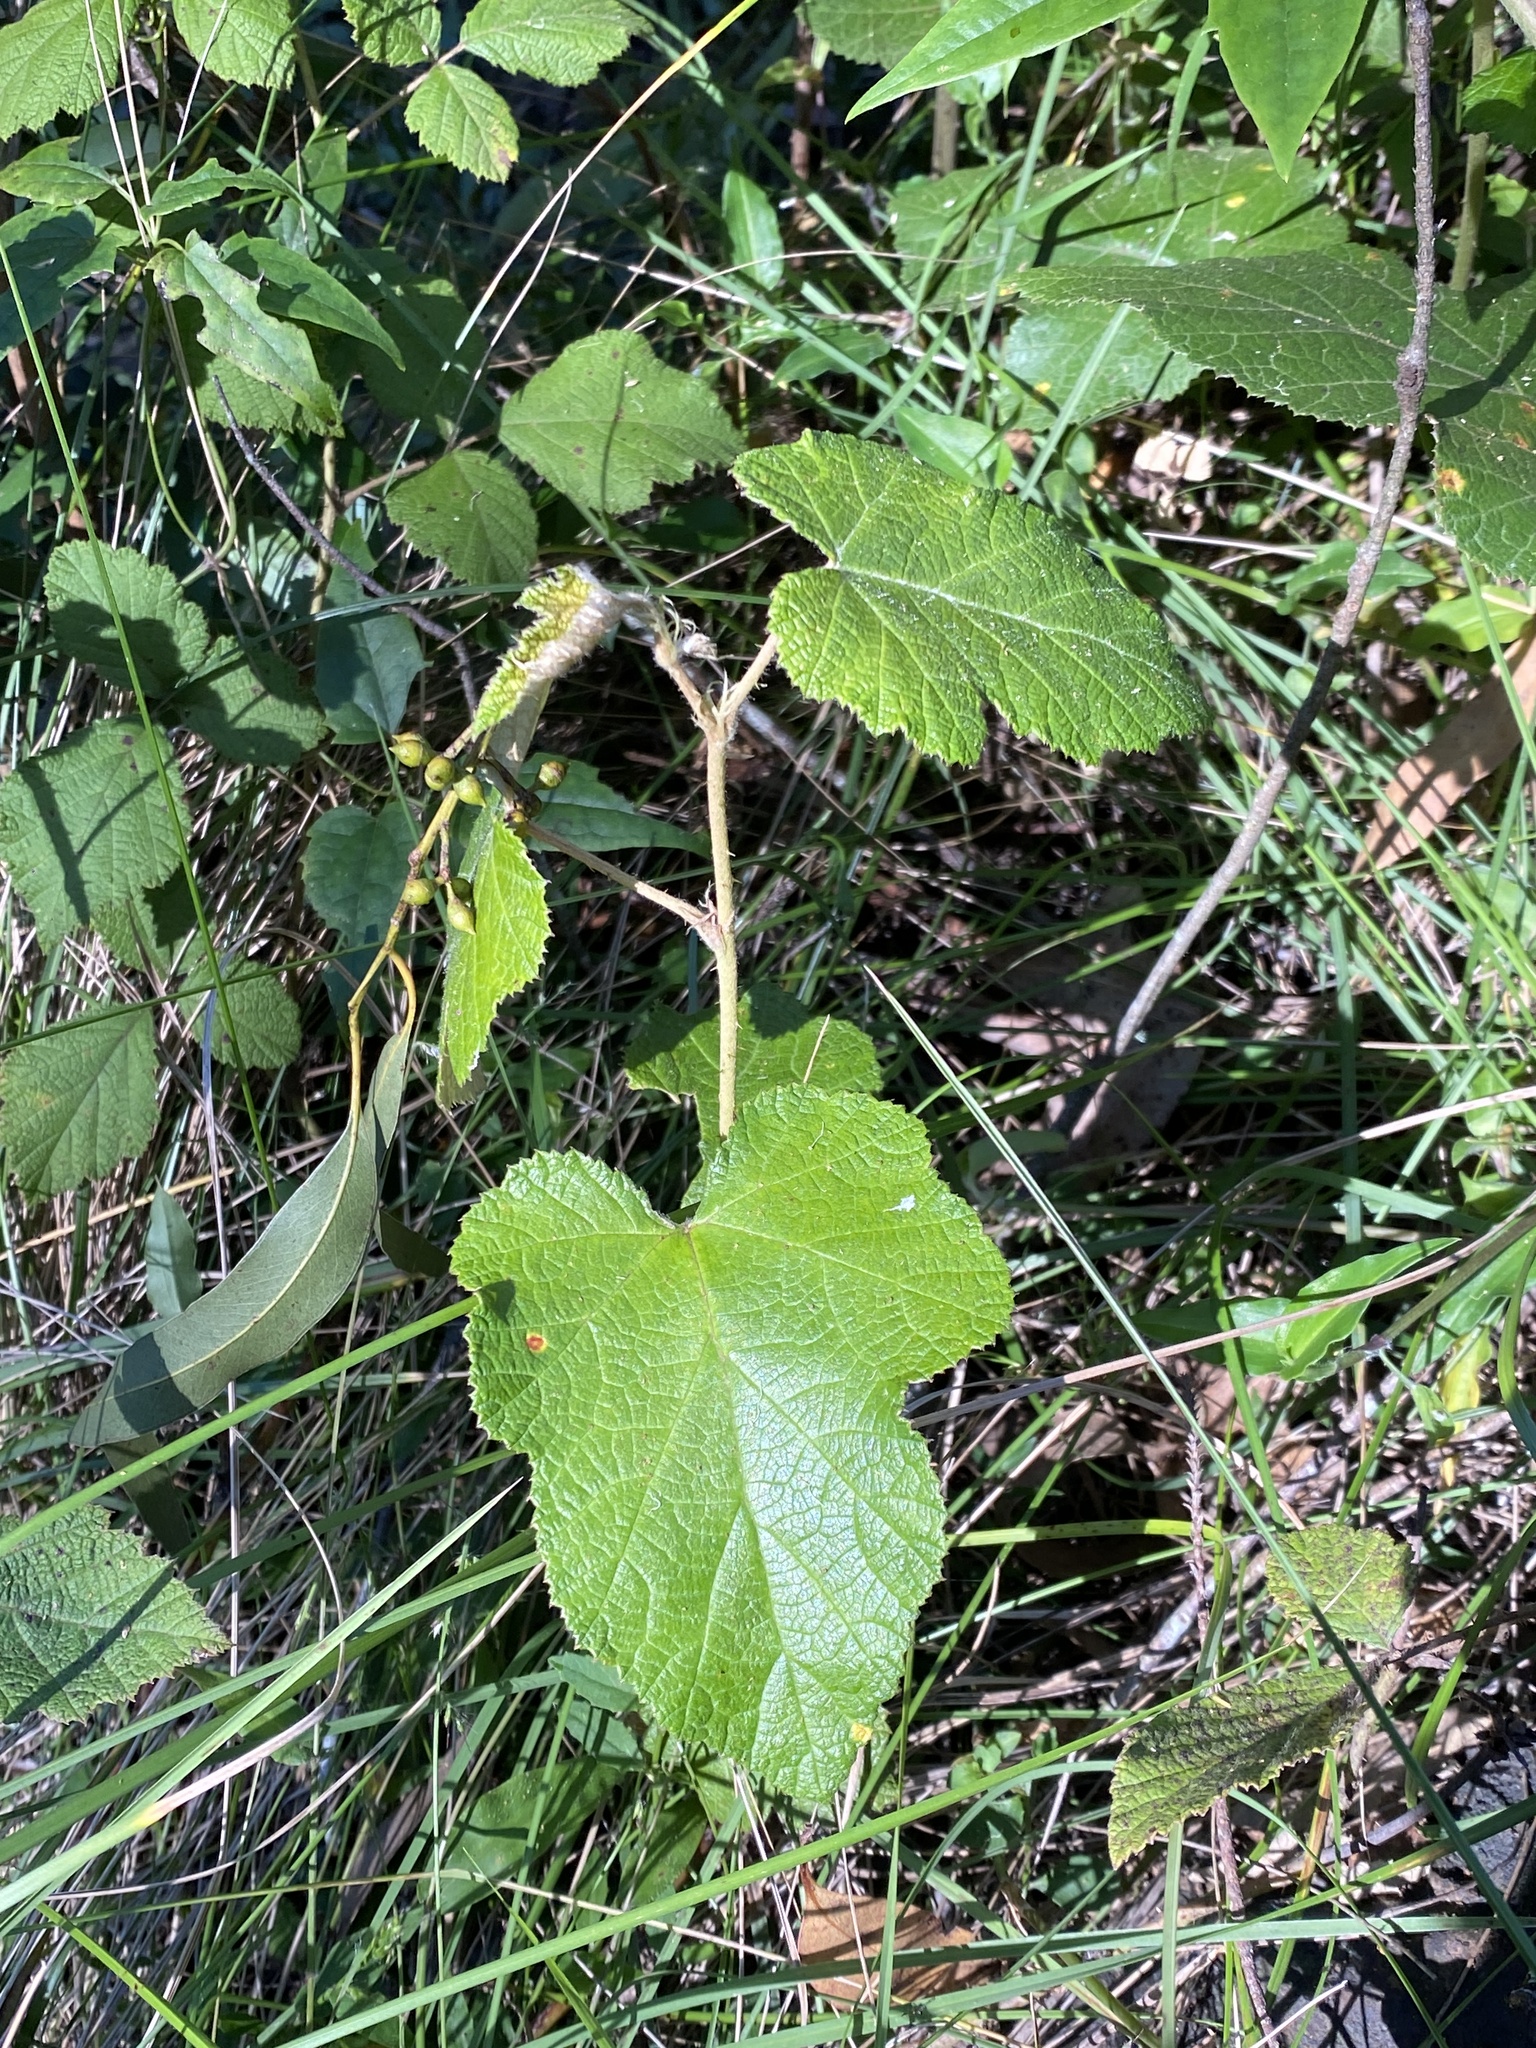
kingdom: Plantae
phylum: Tracheophyta
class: Magnoliopsida
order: Rosales
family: Rosaceae
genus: Rubus
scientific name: Rubus moluccanus
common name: Wild raspberry
